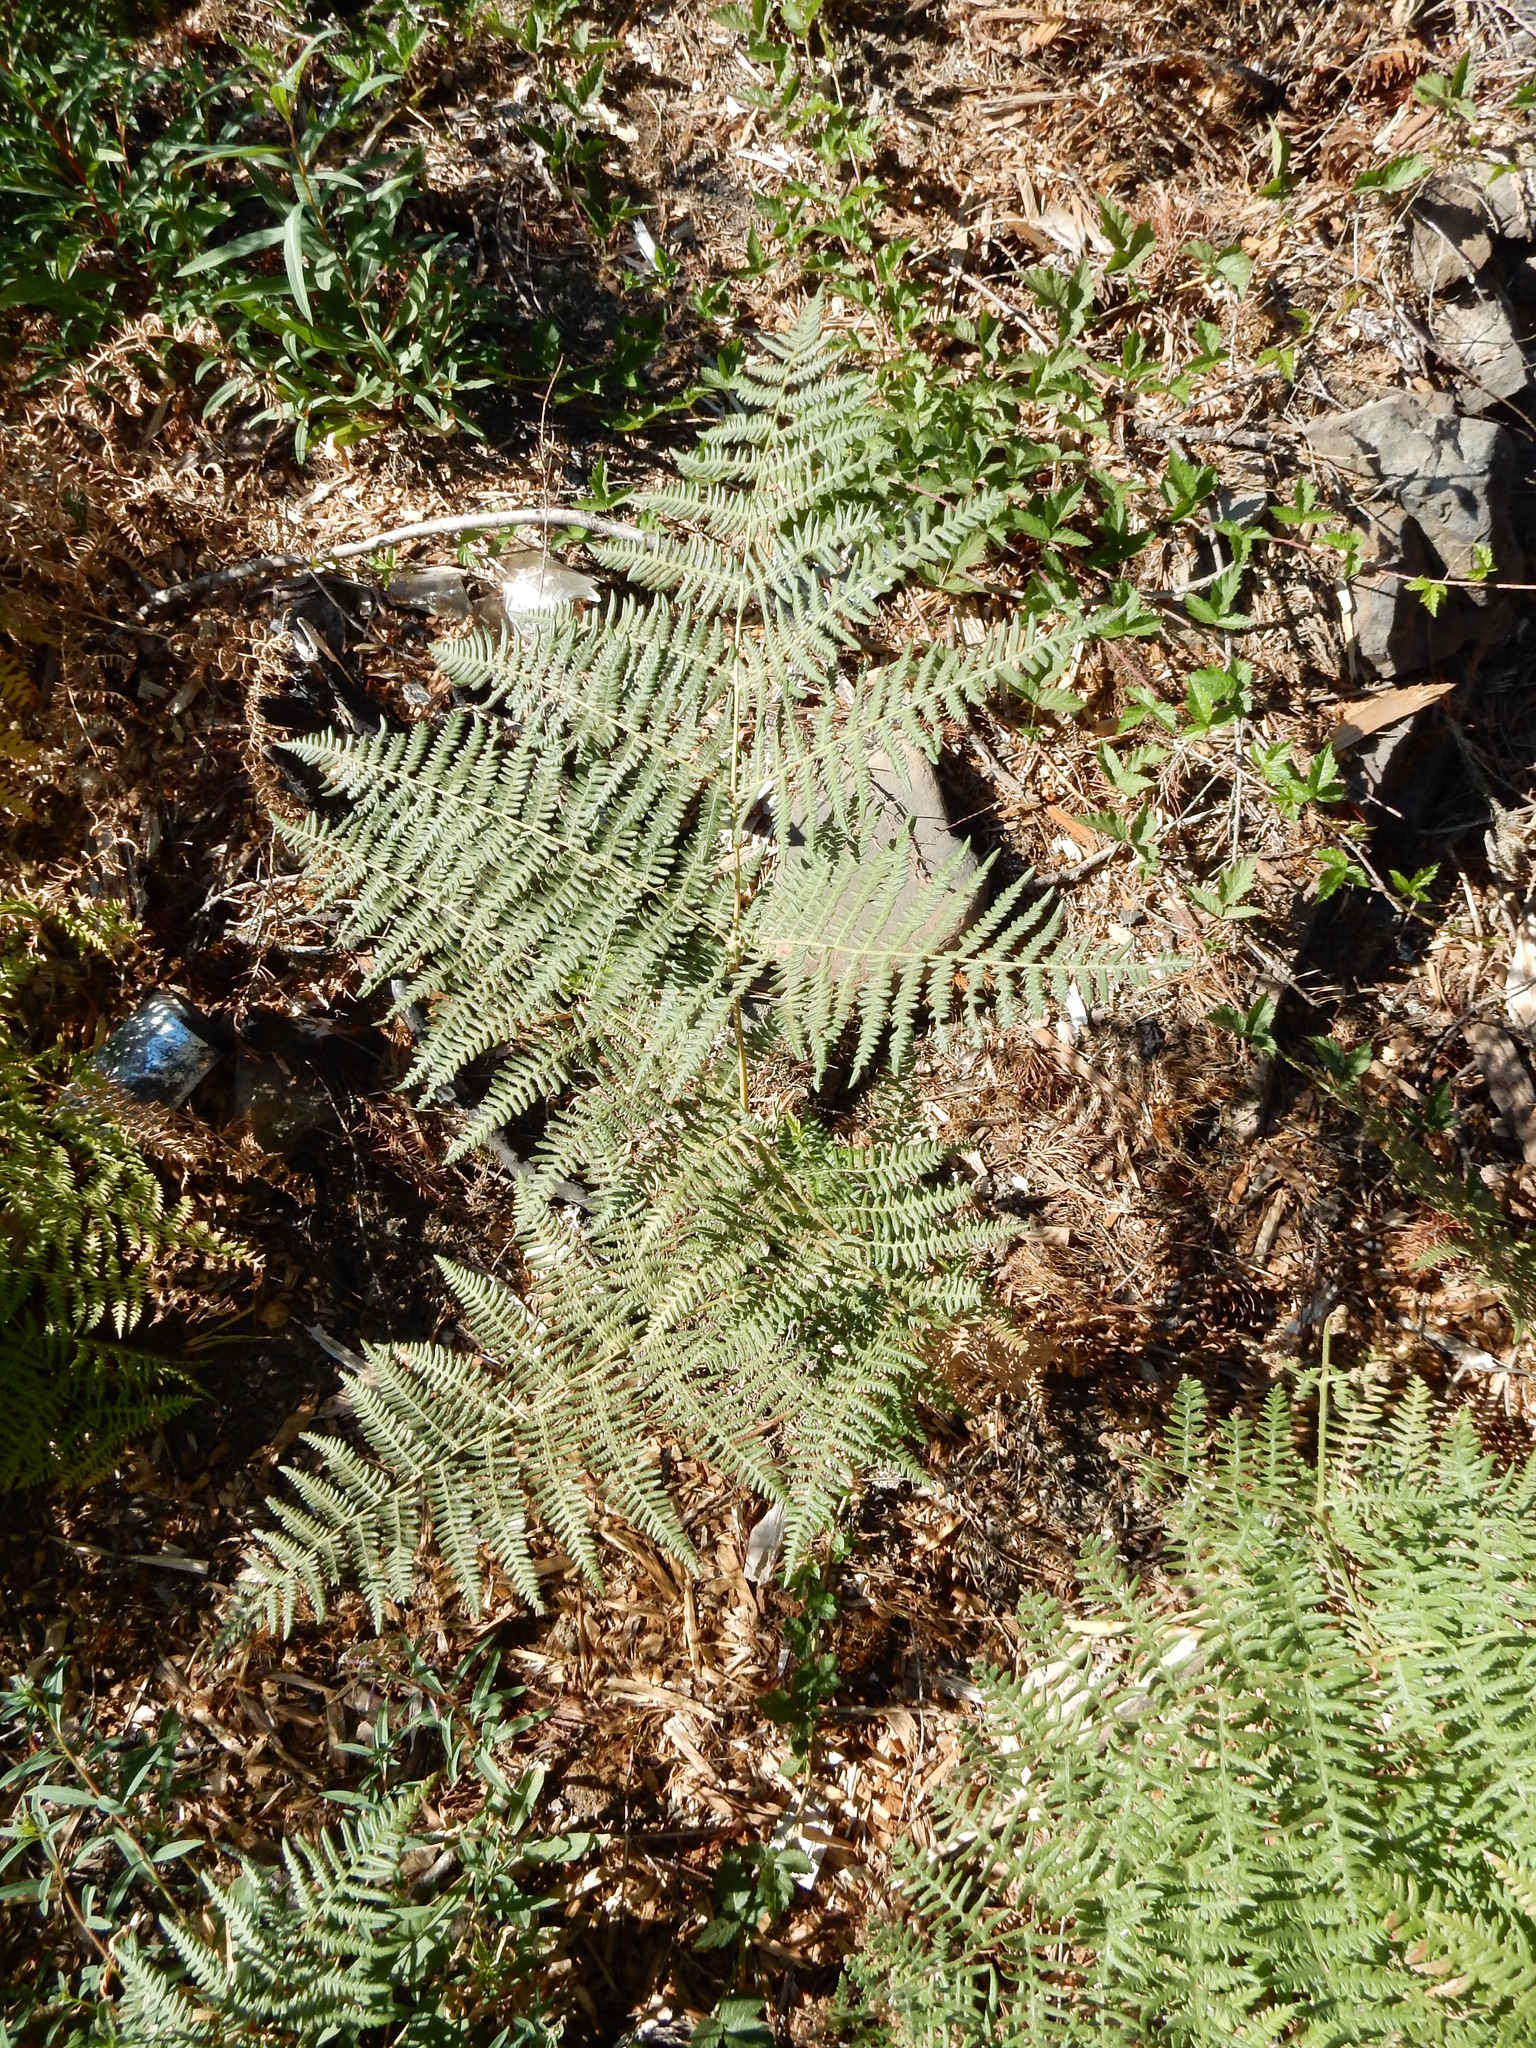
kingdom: Plantae
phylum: Tracheophyta
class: Polypodiopsida
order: Polypodiales
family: Dennstaedtiaceae
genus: Pteridium
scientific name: Pteridium aquilinum
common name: Bracken
